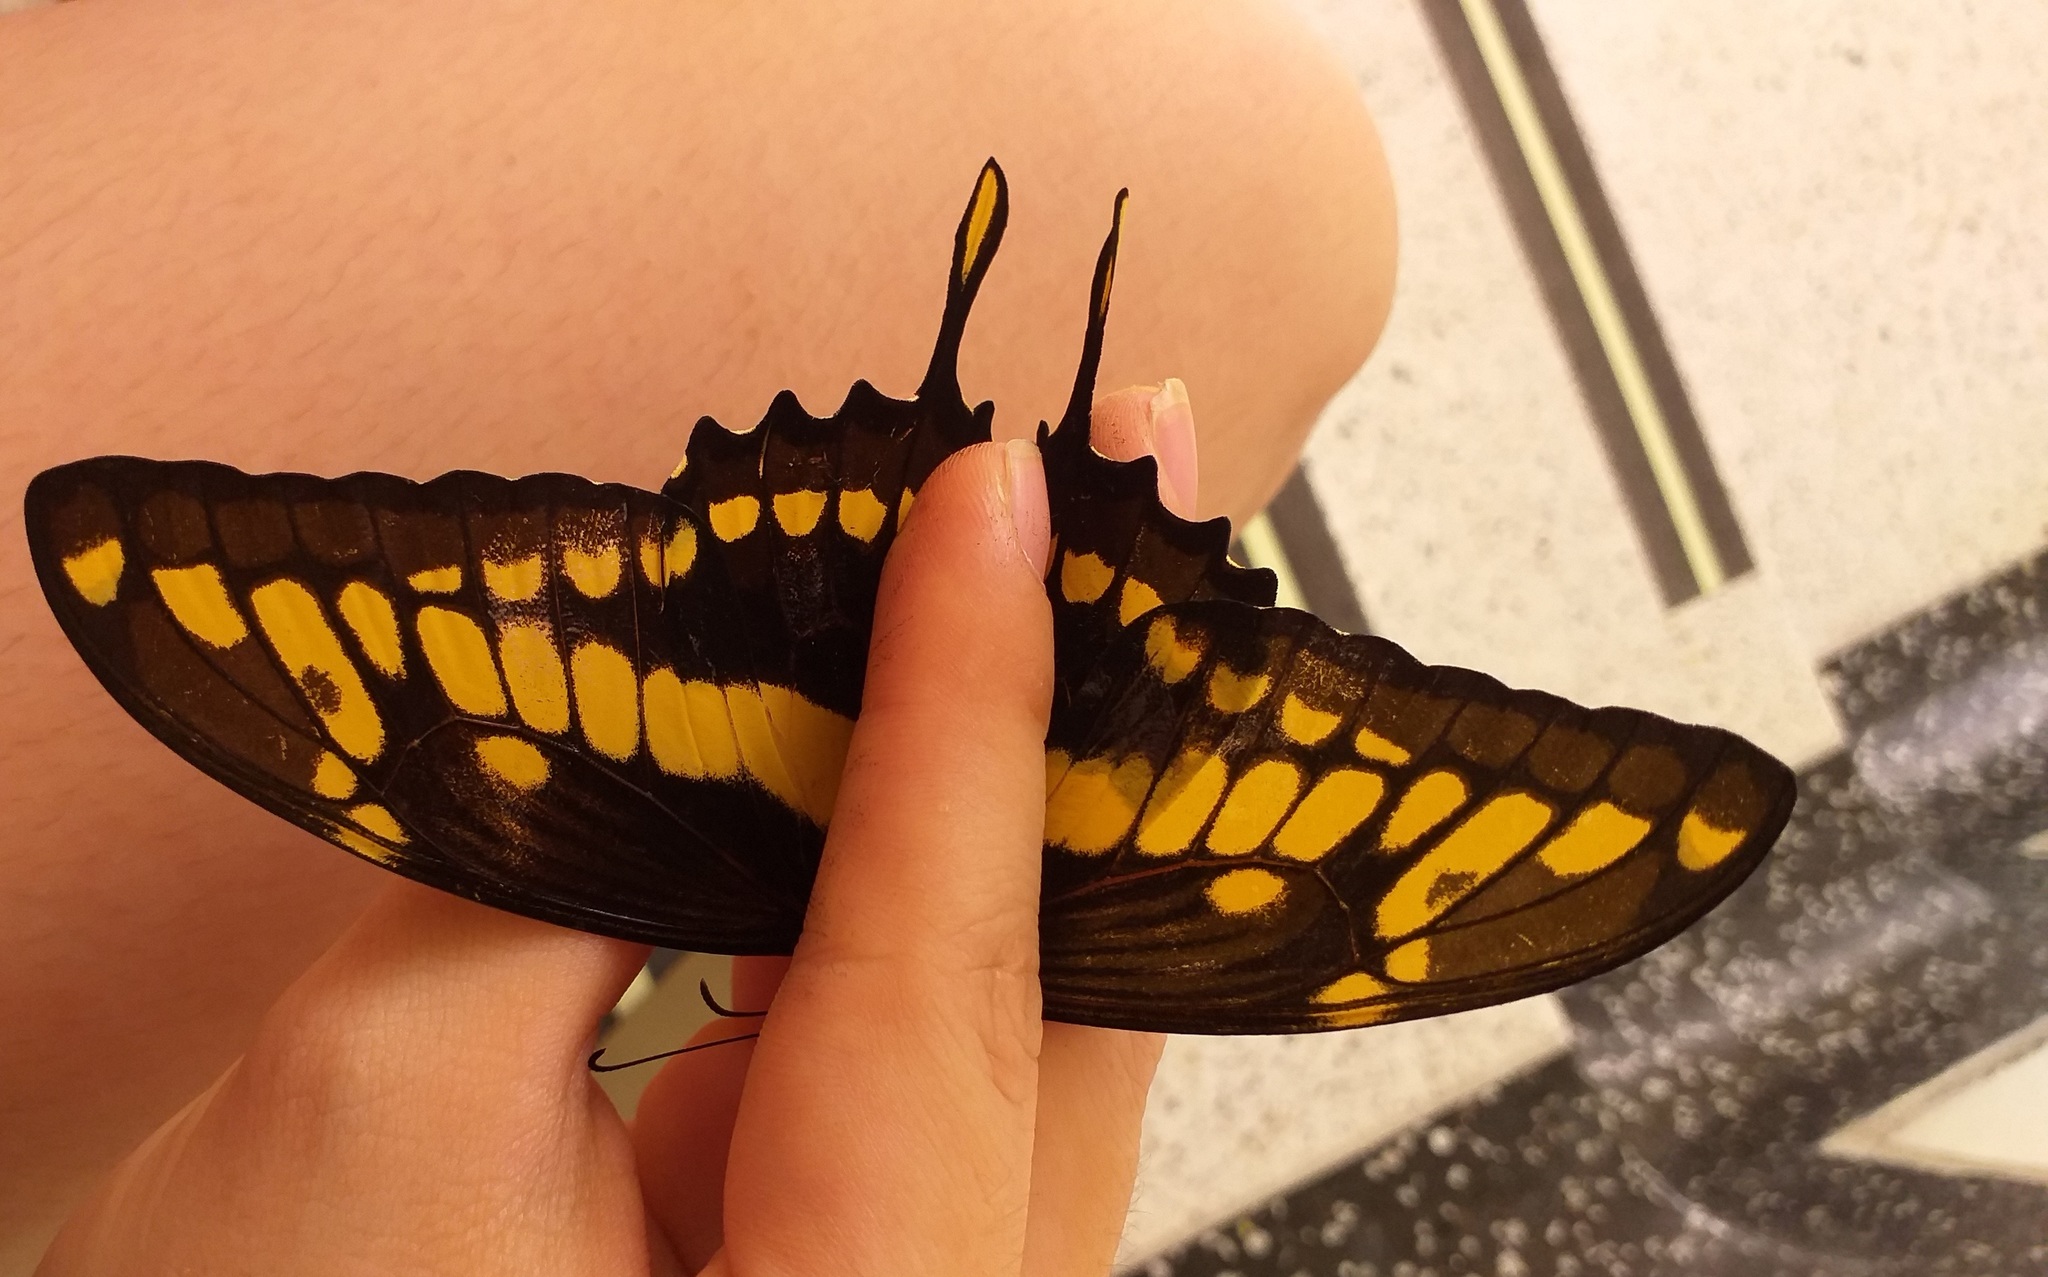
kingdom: Animalia
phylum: Arthropoda
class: Insecta
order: Lepidoptera
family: Papilionidae
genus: Papilio
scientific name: Papilio thoas
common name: King swallowtail
